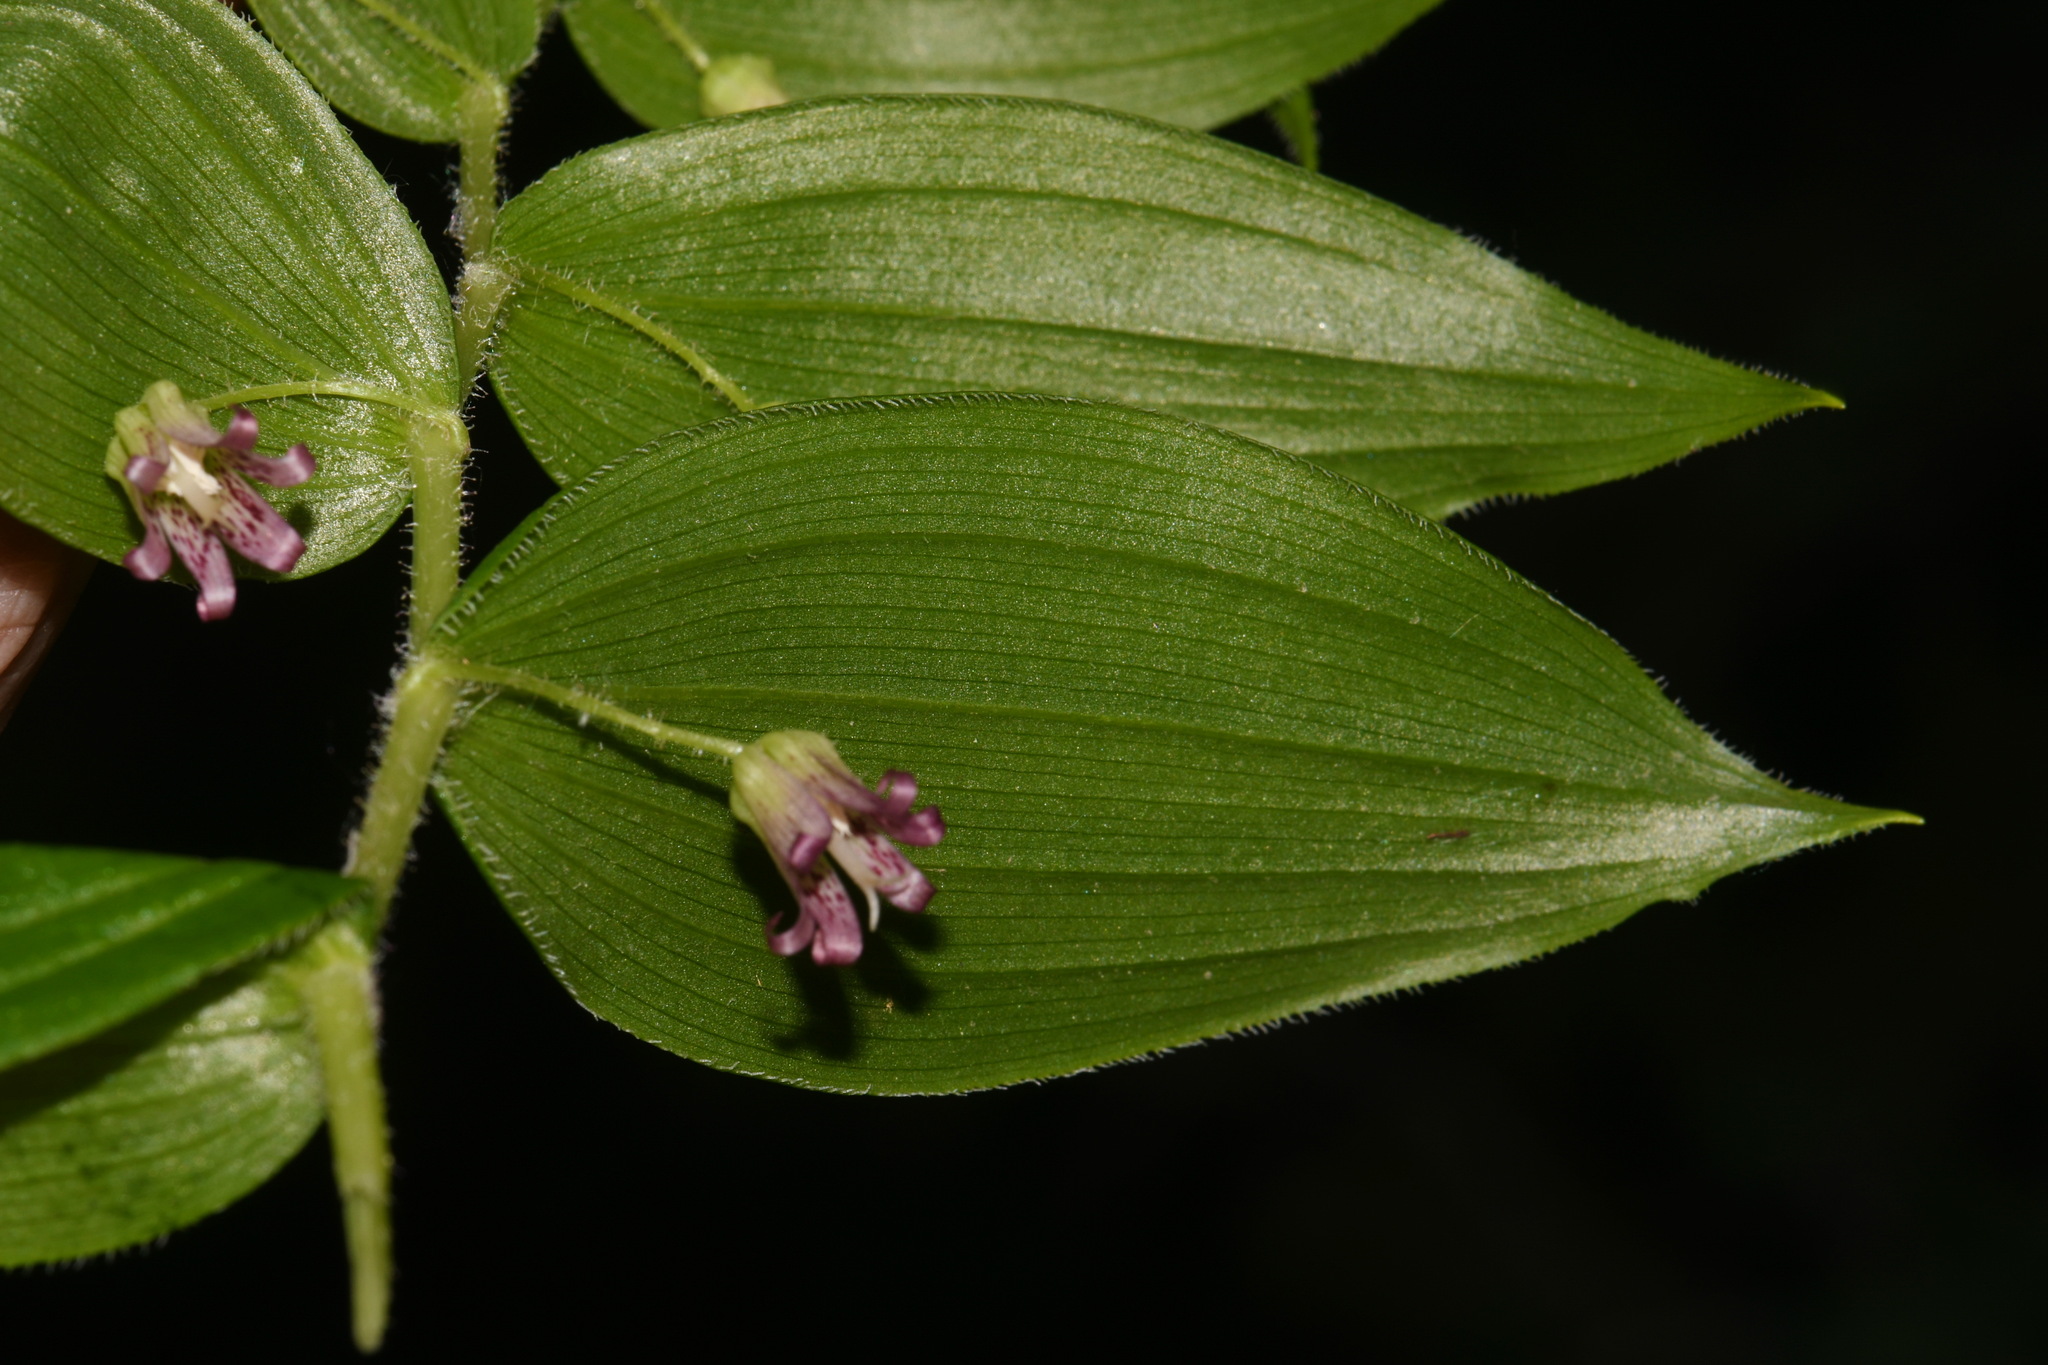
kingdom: Plantae
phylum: Tracheophyta
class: Liliopsida
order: Liliales
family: Liliaceae
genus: Streptopus
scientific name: Streptopus lanceolatus
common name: Rose mandarin
